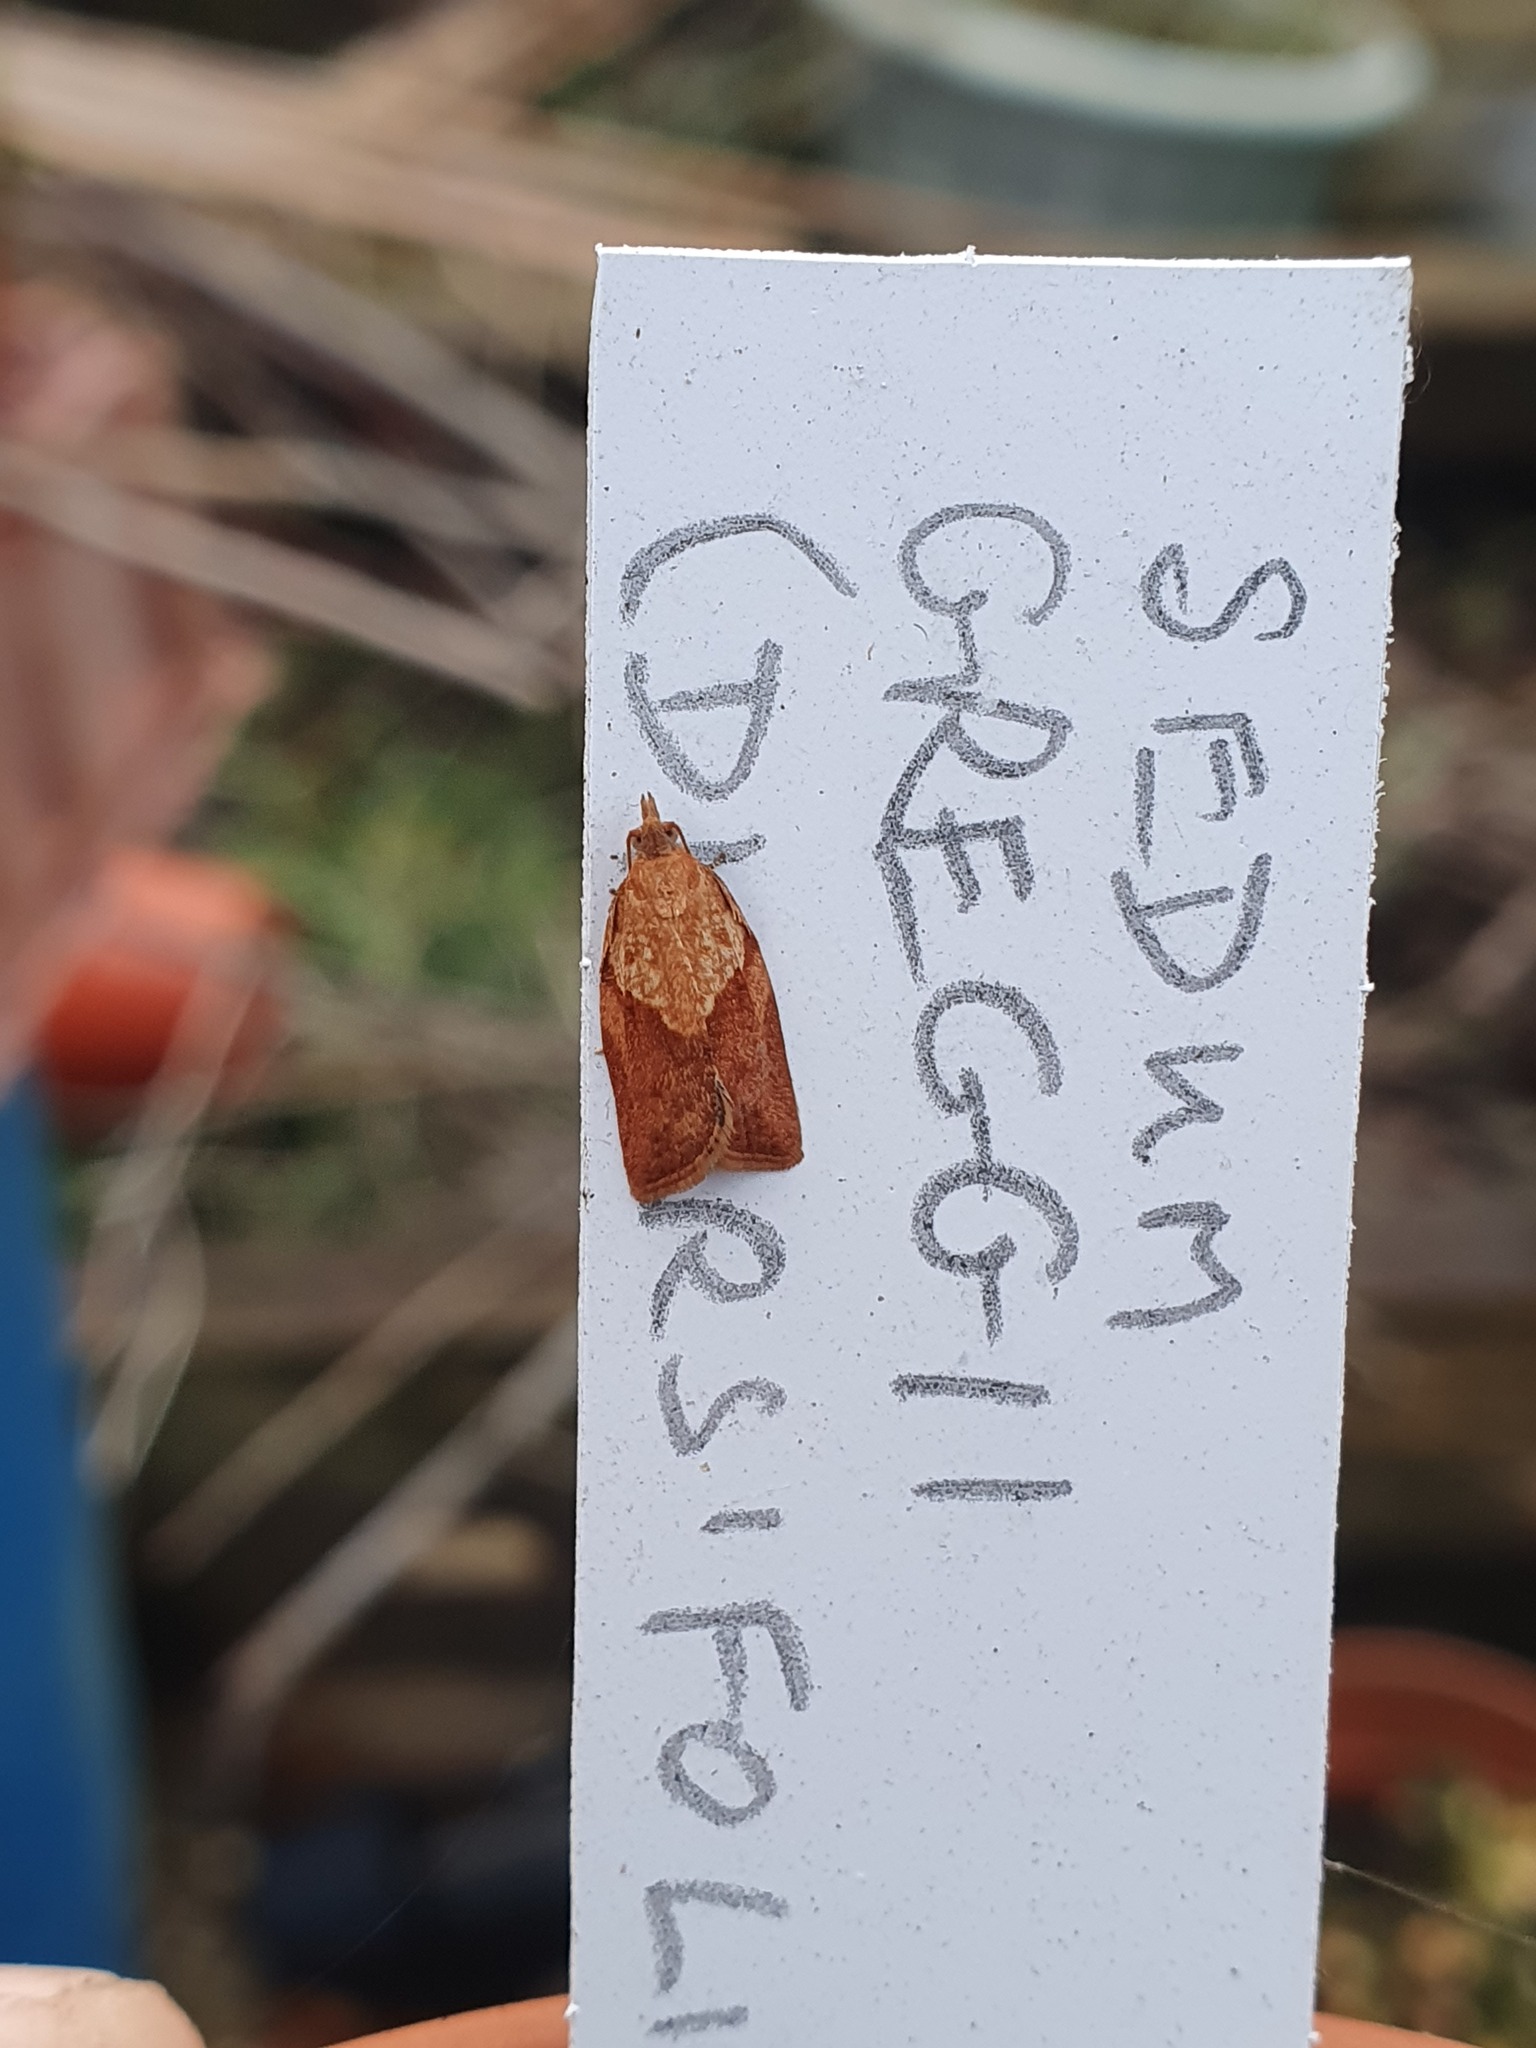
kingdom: Animalia
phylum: Arthropoda
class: Insecta
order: Lepidoptera
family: Tortricidae
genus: Epiphyas
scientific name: Epiphyas postvittana
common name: Light brown apple moth
